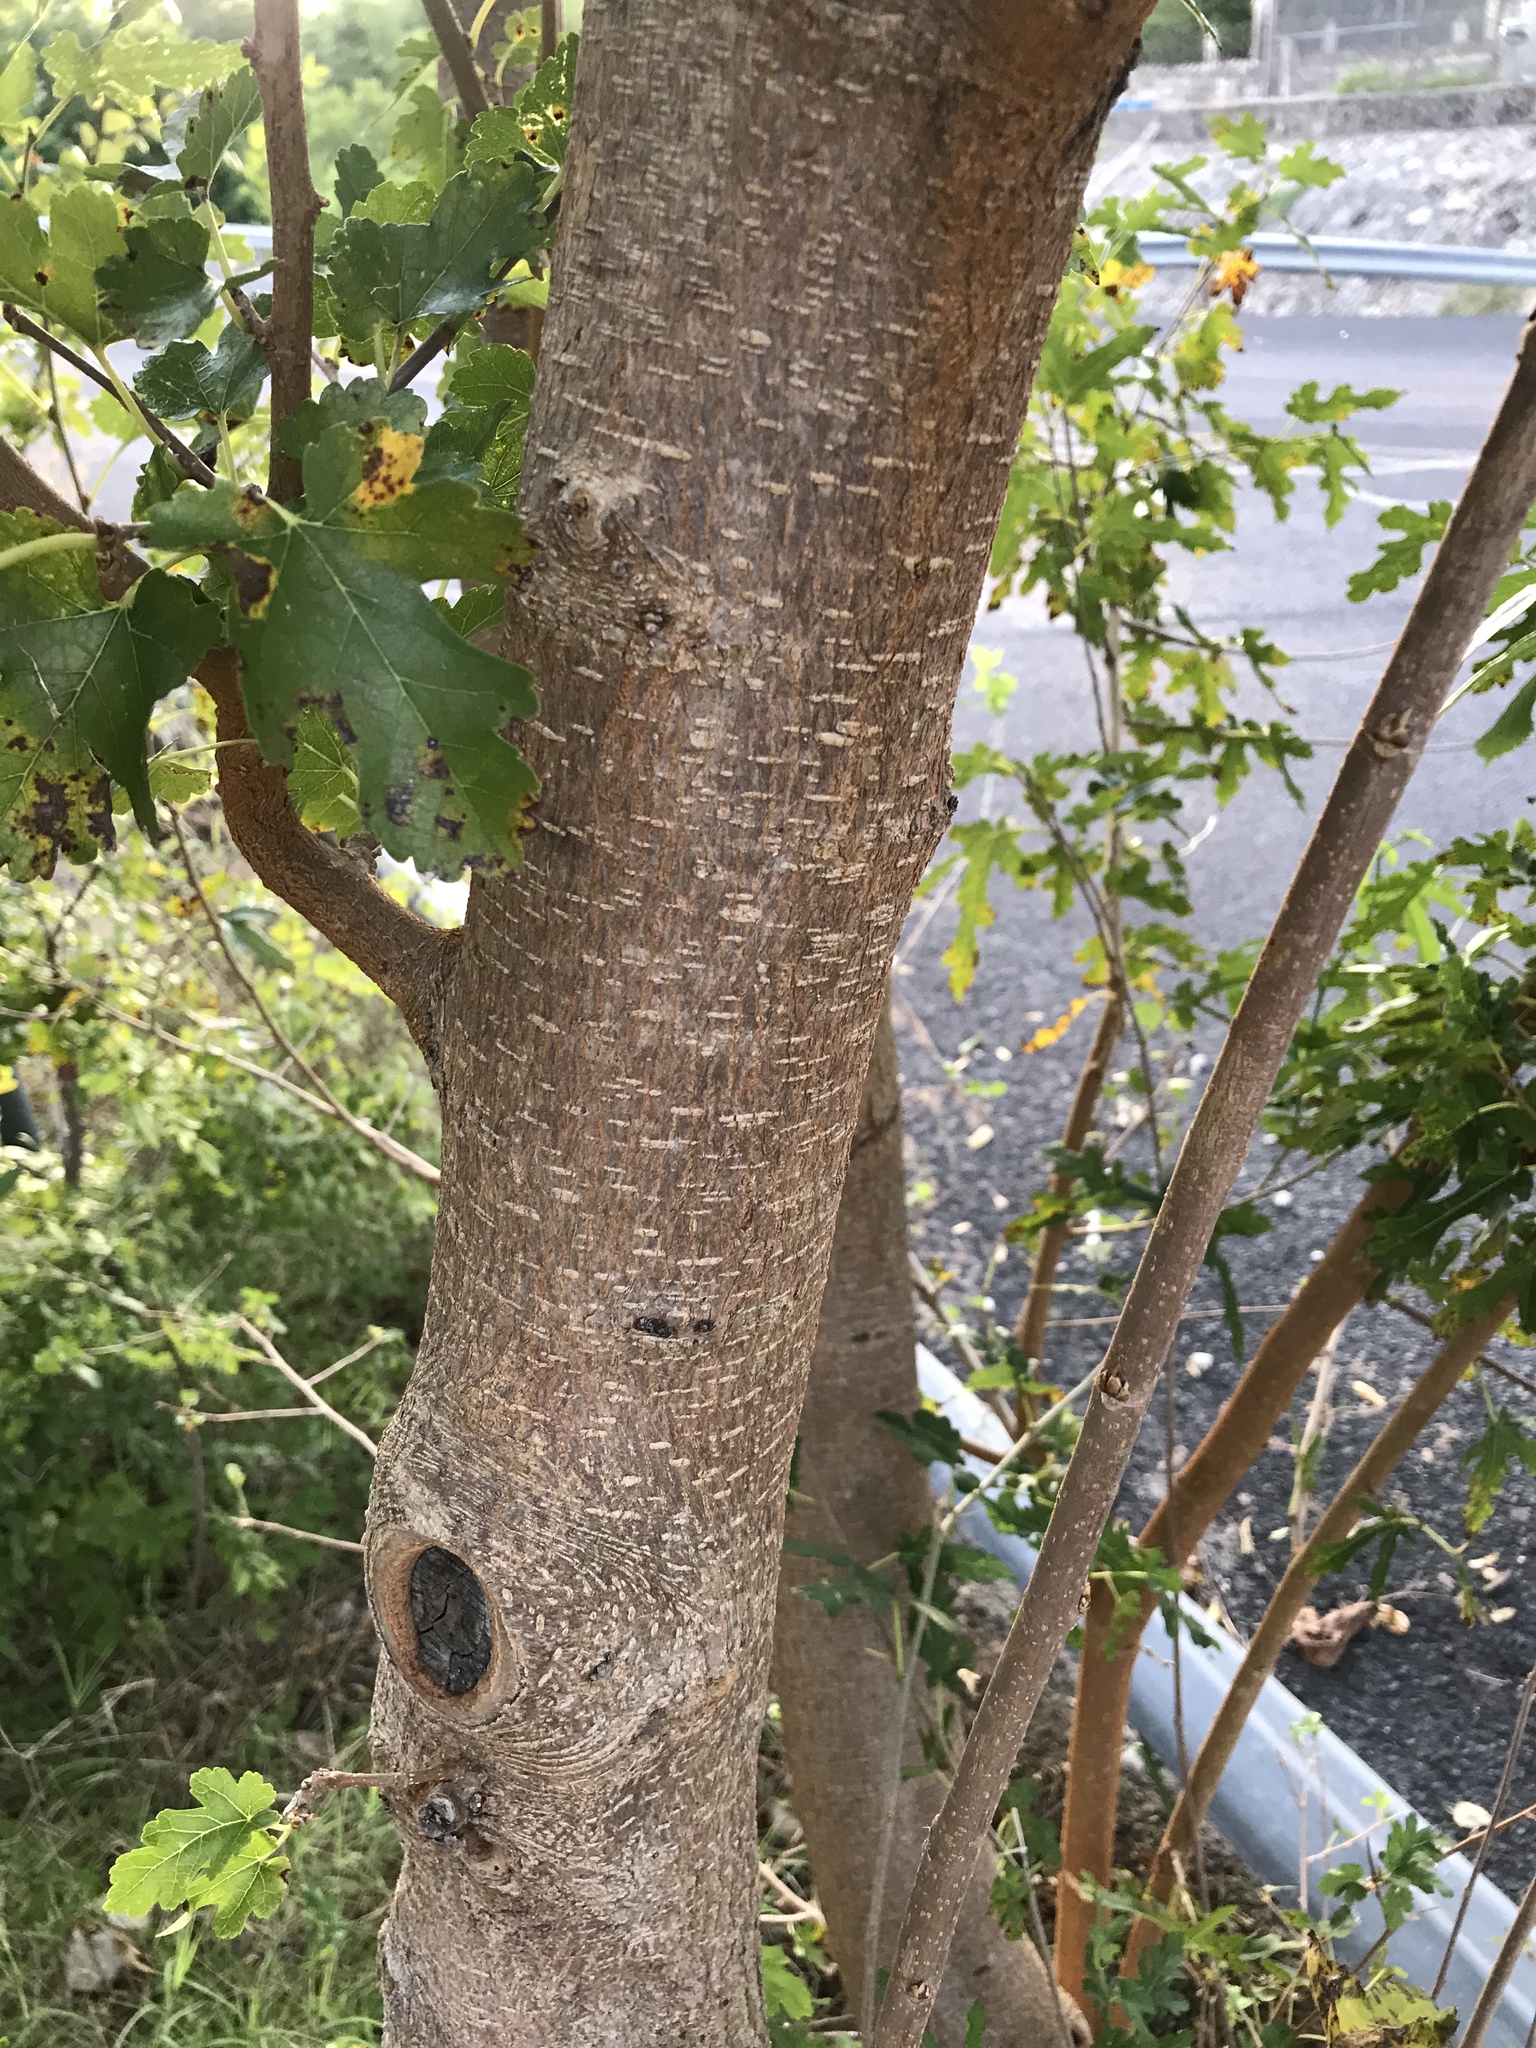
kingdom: Plantae
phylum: Tracheophyta
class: Magnoliopsida
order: Rosales
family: Moraceae
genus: Morus
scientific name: Morus indica
